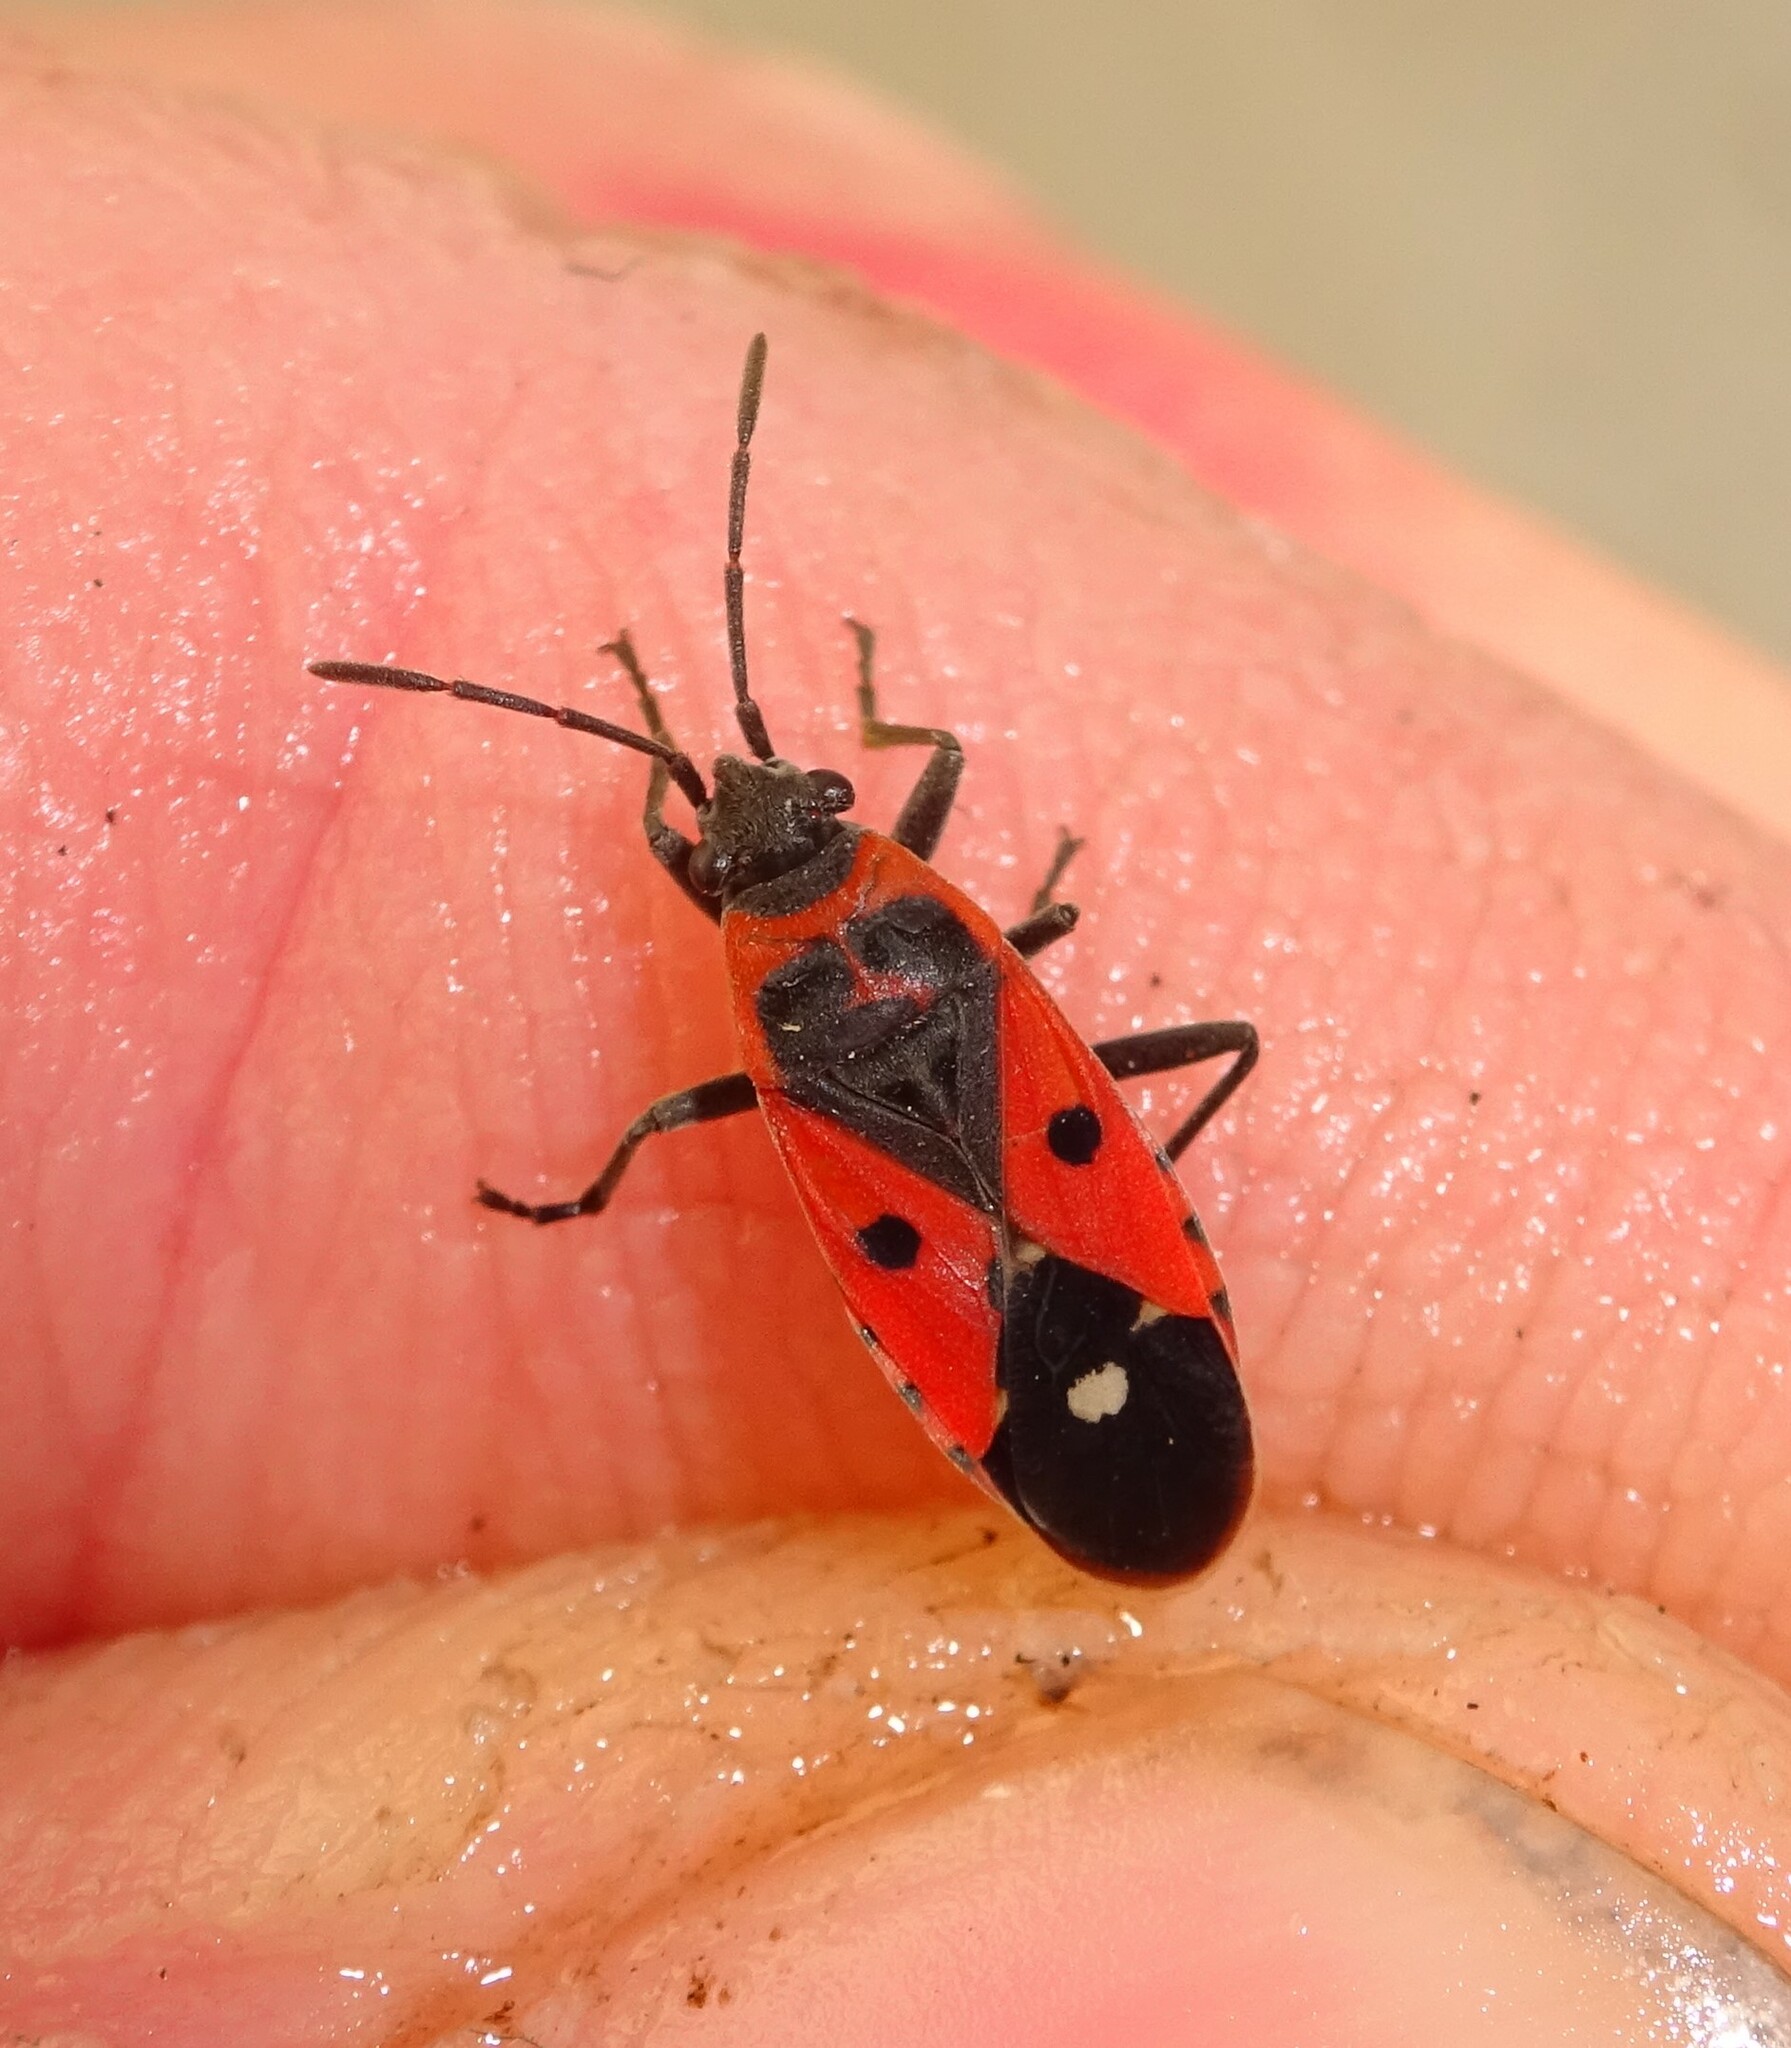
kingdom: Animalia
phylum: Arthropoda
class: Insecta
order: Hemiptera
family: Lygaeidae
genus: Melanocoryphus
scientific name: Melanocoryphus albomaculatus
